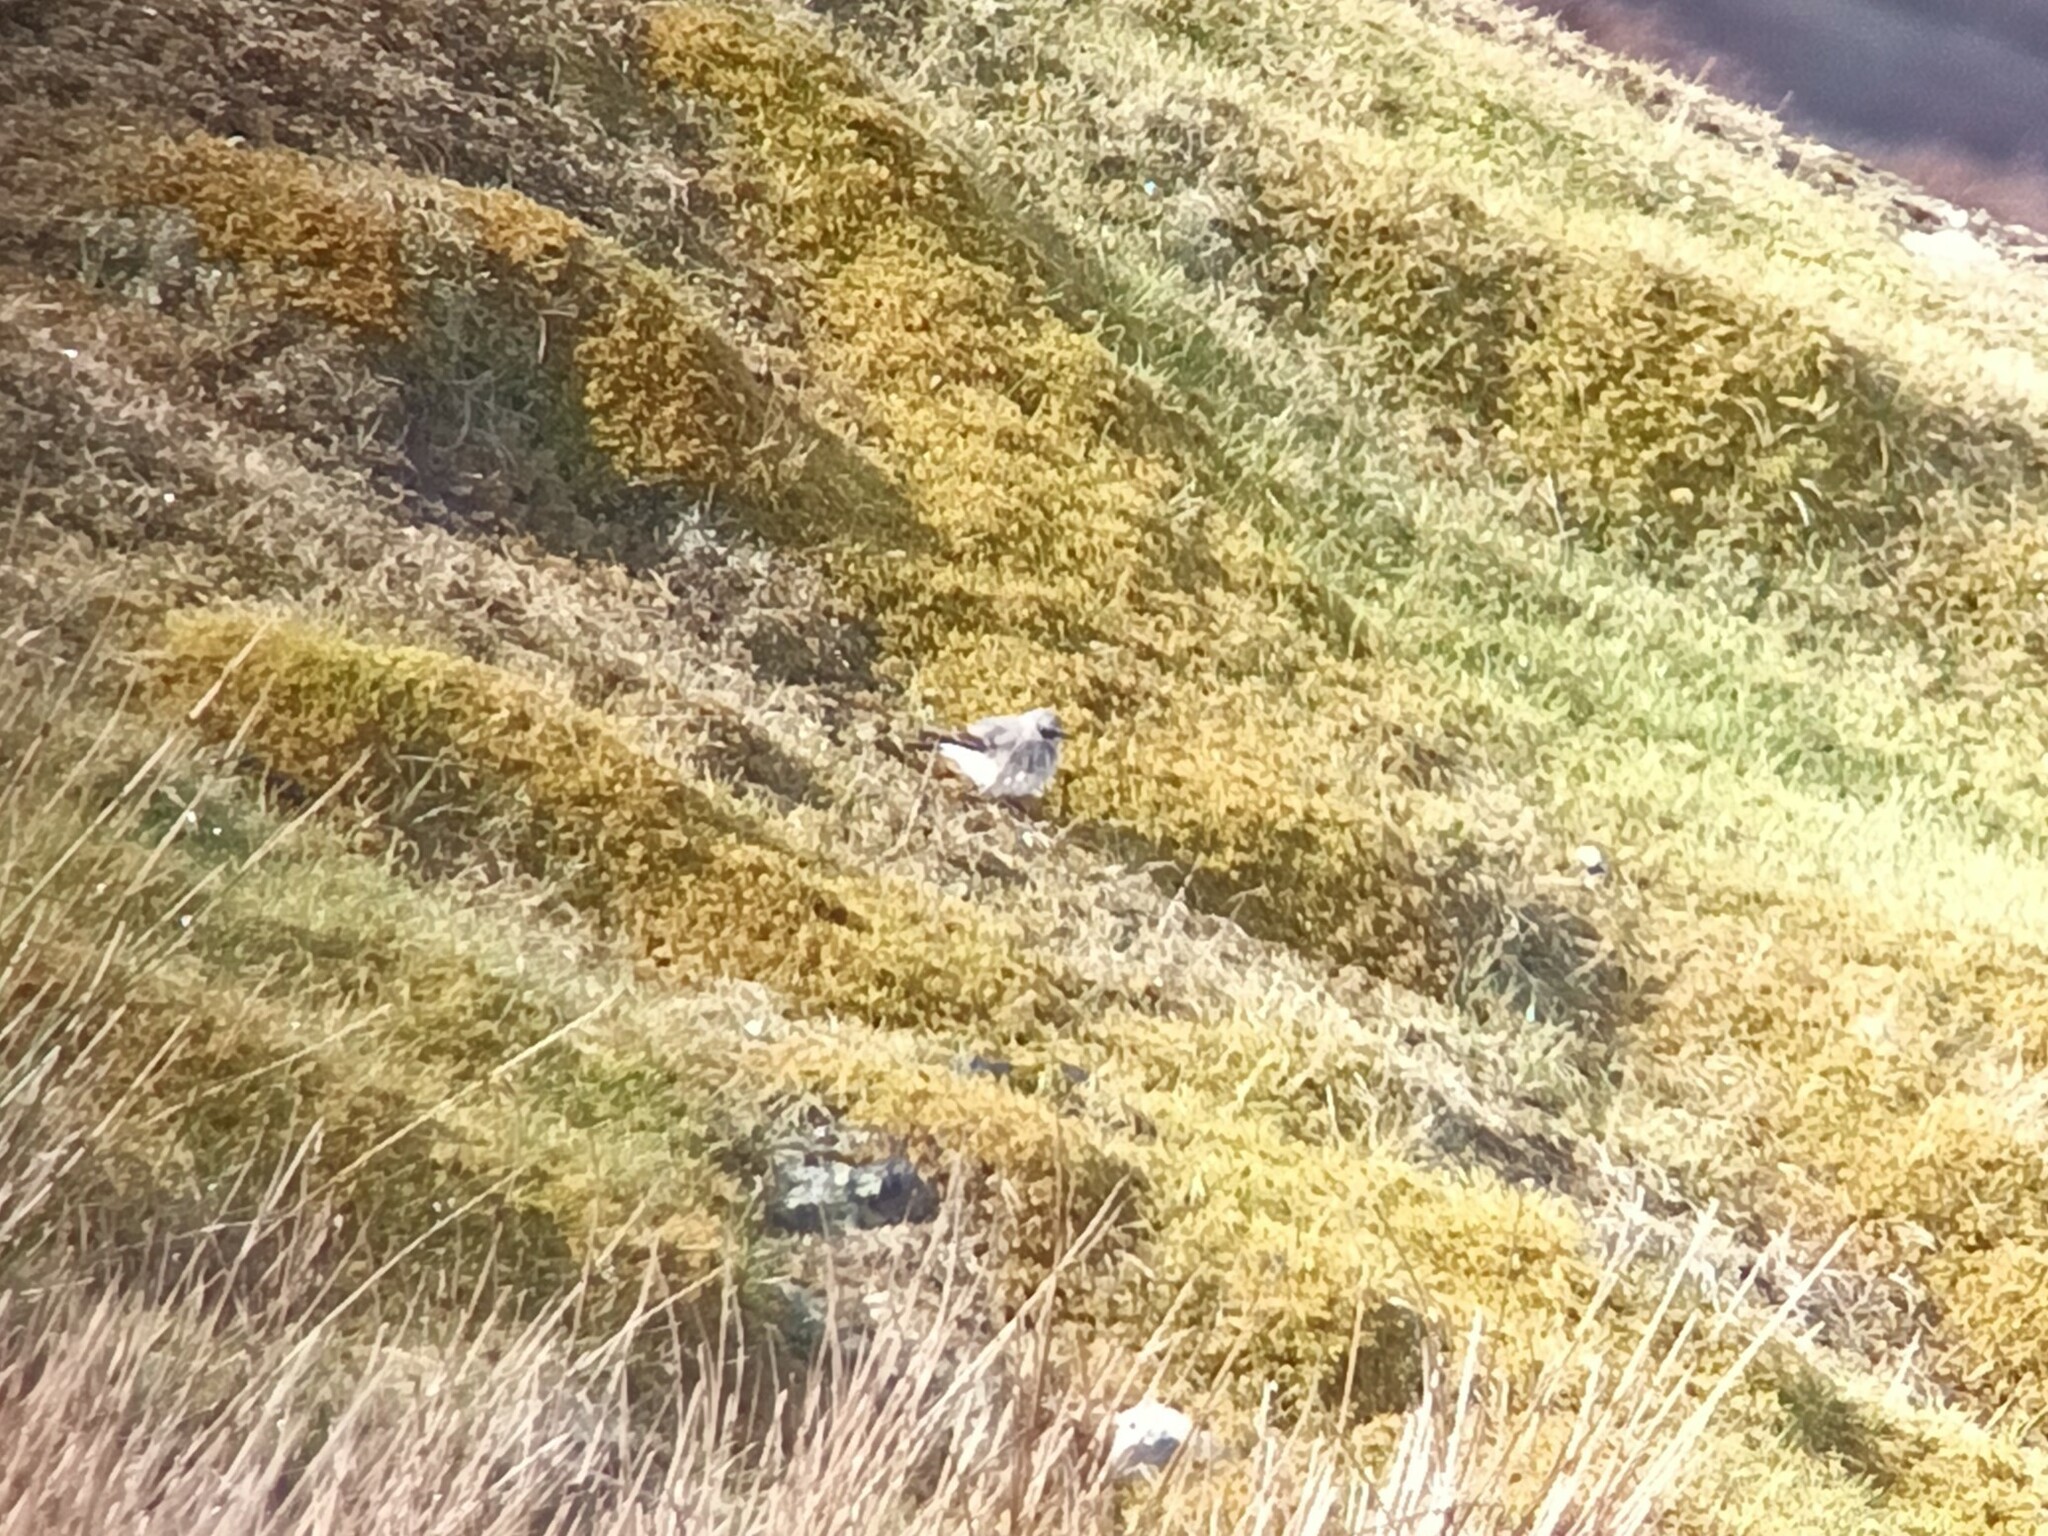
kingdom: Animalia
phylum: Chordata
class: Aves
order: Passeriformes
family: Muscicapidae
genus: Oenanthe
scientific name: Oenanthe oenanthe
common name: Northern wheatear
